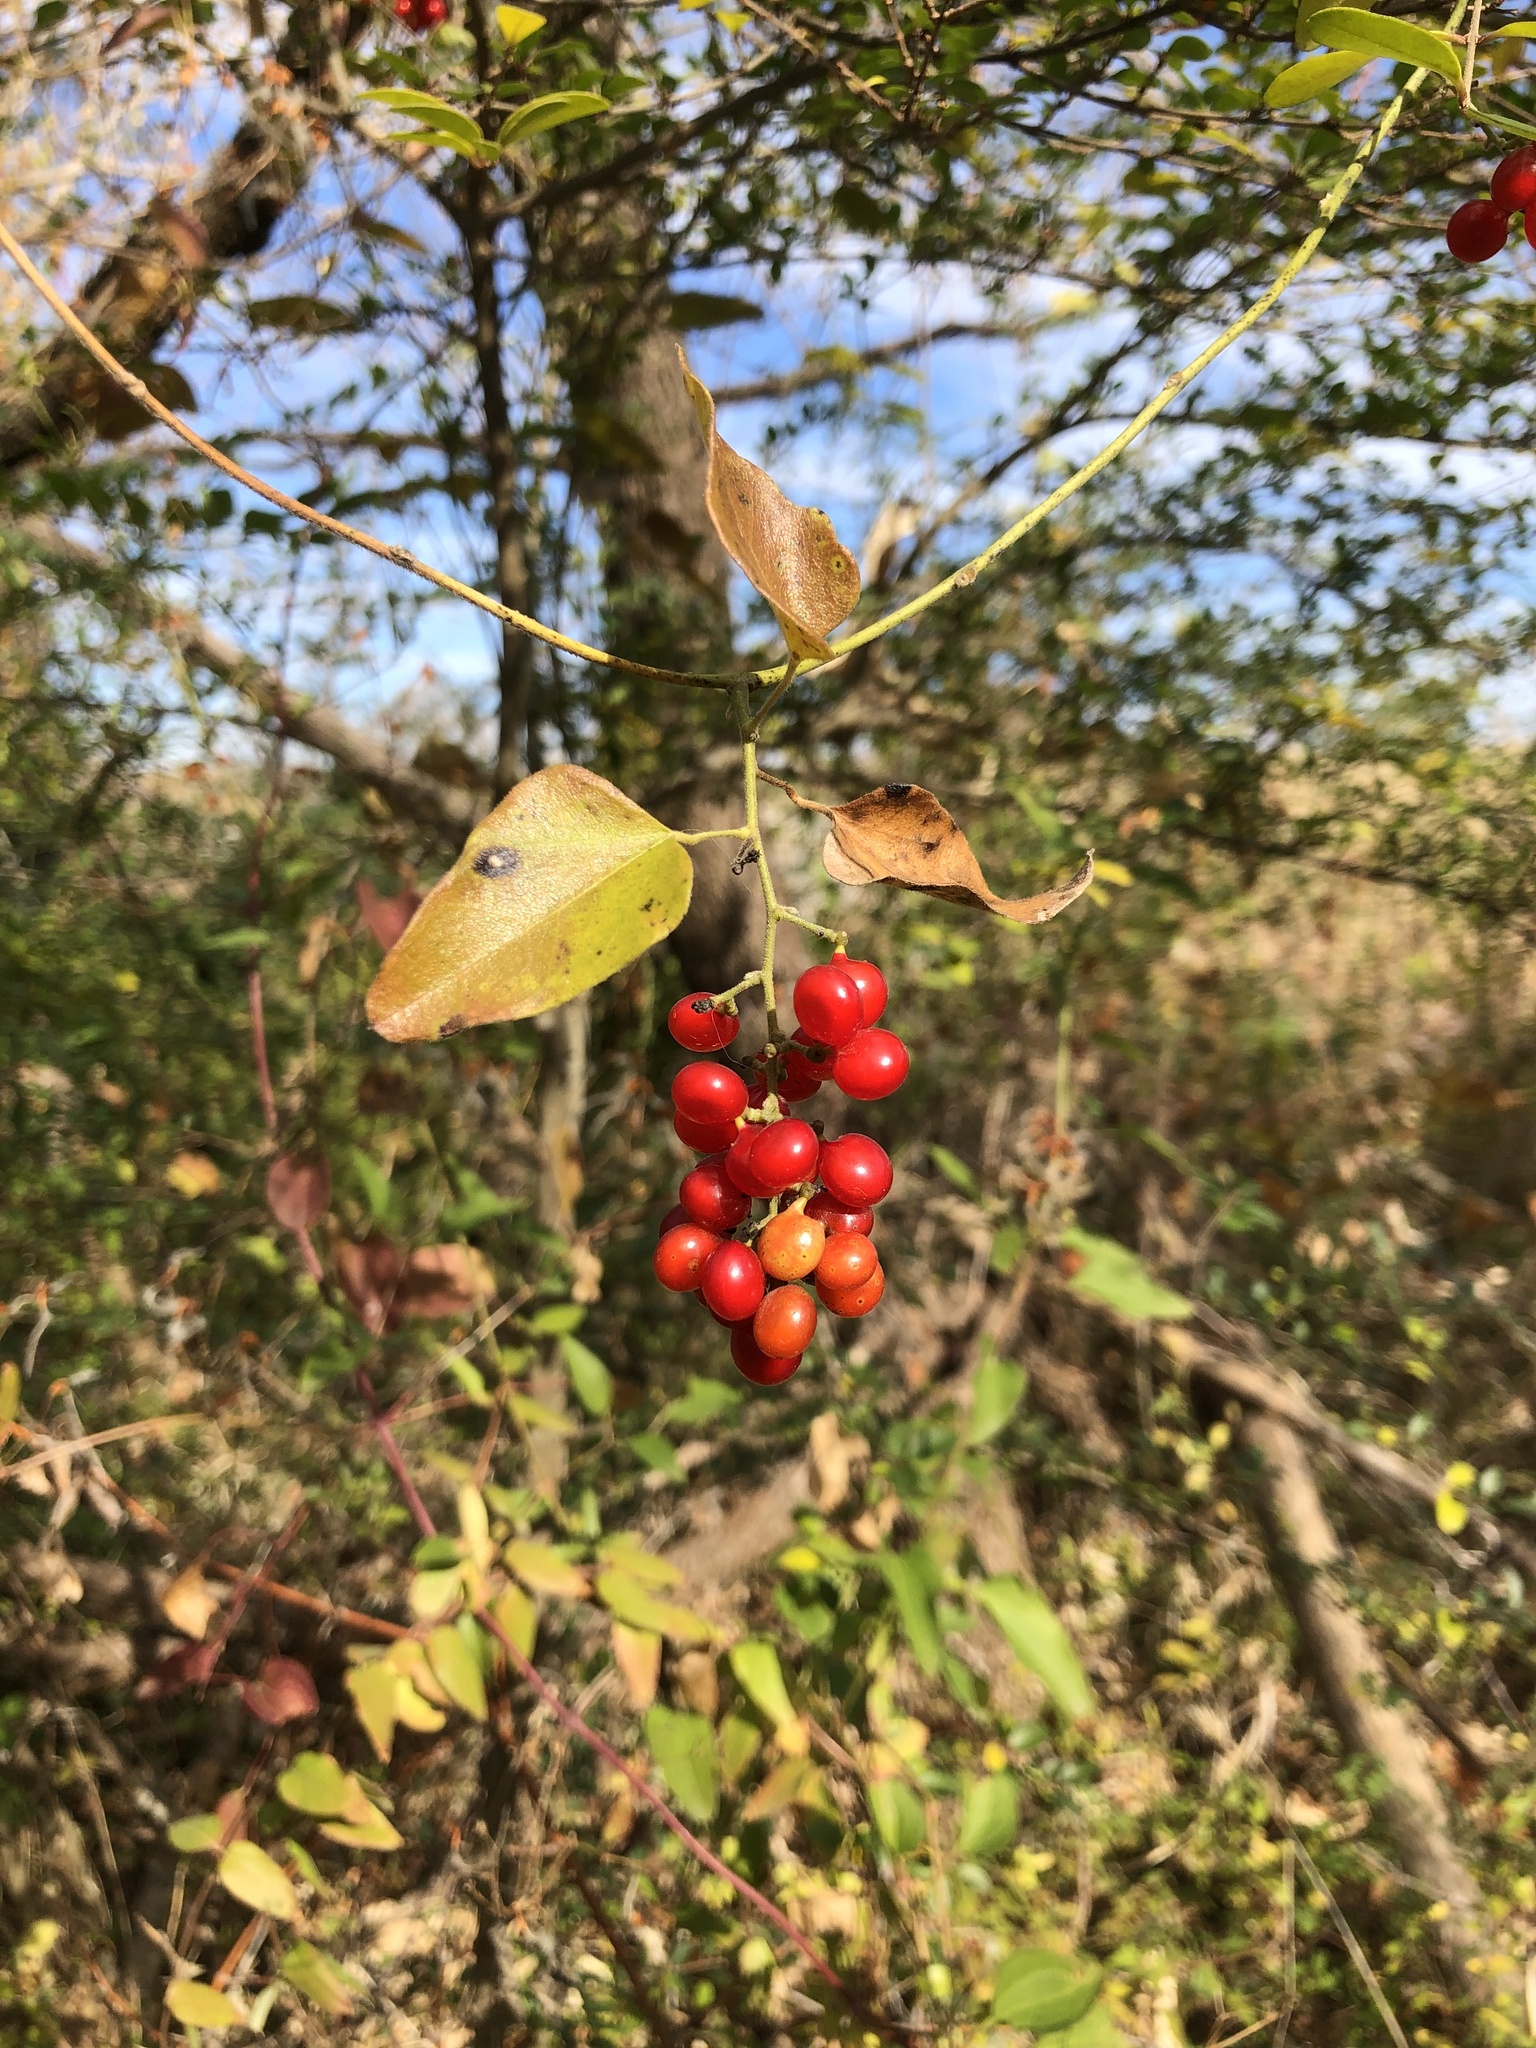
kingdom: Plantae
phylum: Tracheophyta
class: Magnoliopsida
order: Ranunculales
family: Menispermaceae
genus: Cocculus
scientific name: Cocculus carolinus
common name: Carolina moonseed
